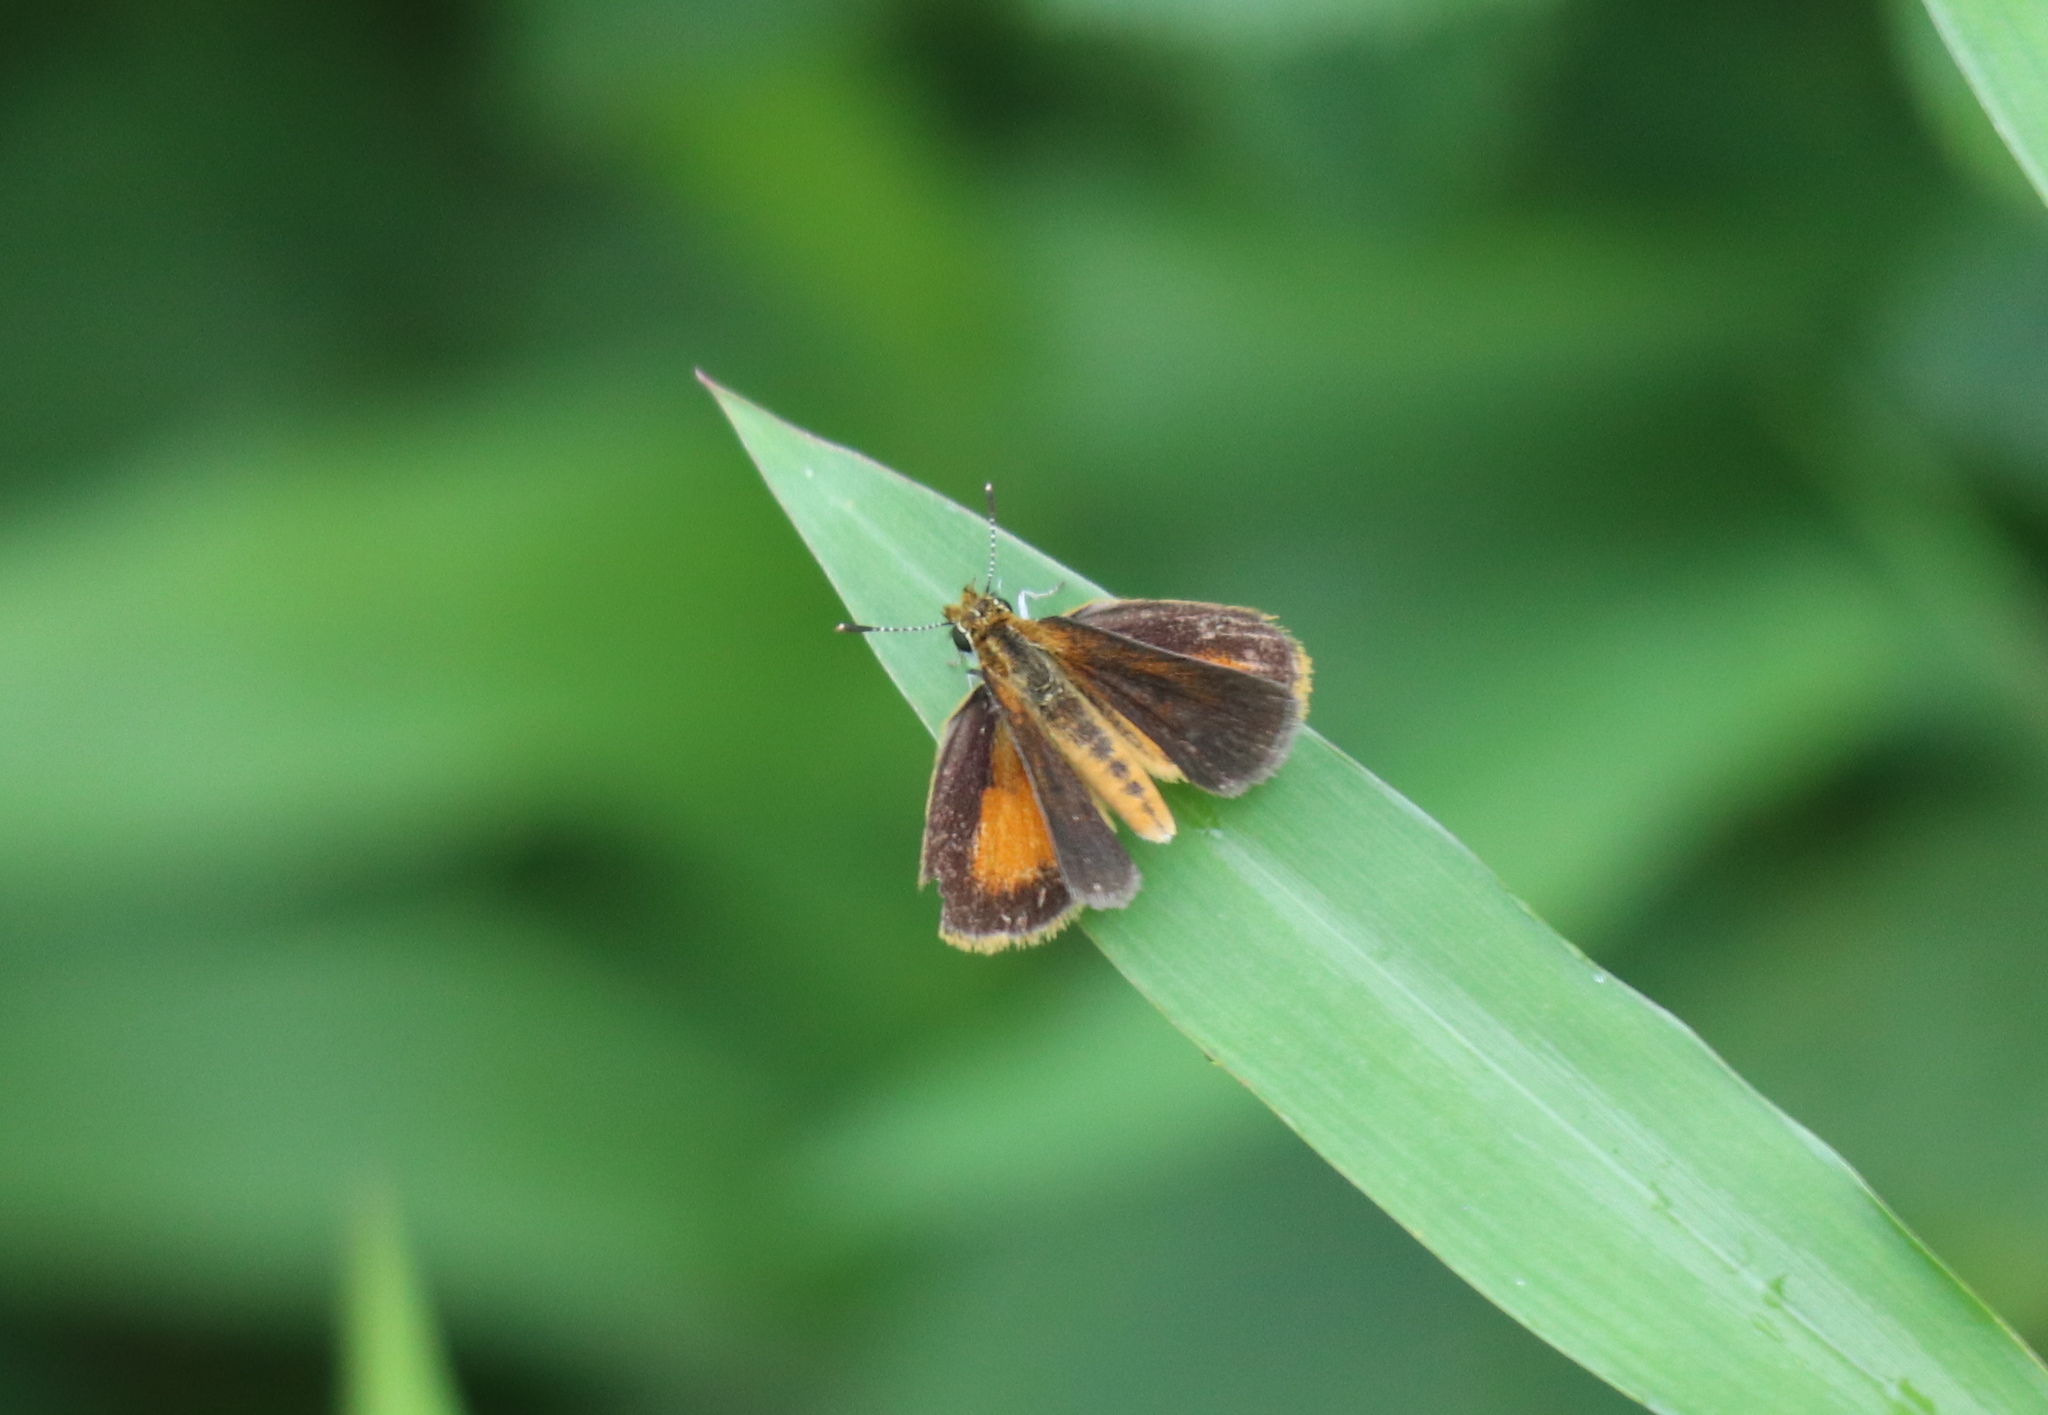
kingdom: Animalia
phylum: Arthropoda
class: Insecta
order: Lepidoptera
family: Hesperiidae
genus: Ancyloxypha
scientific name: Ancyloxypha numitor
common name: Least skipper
